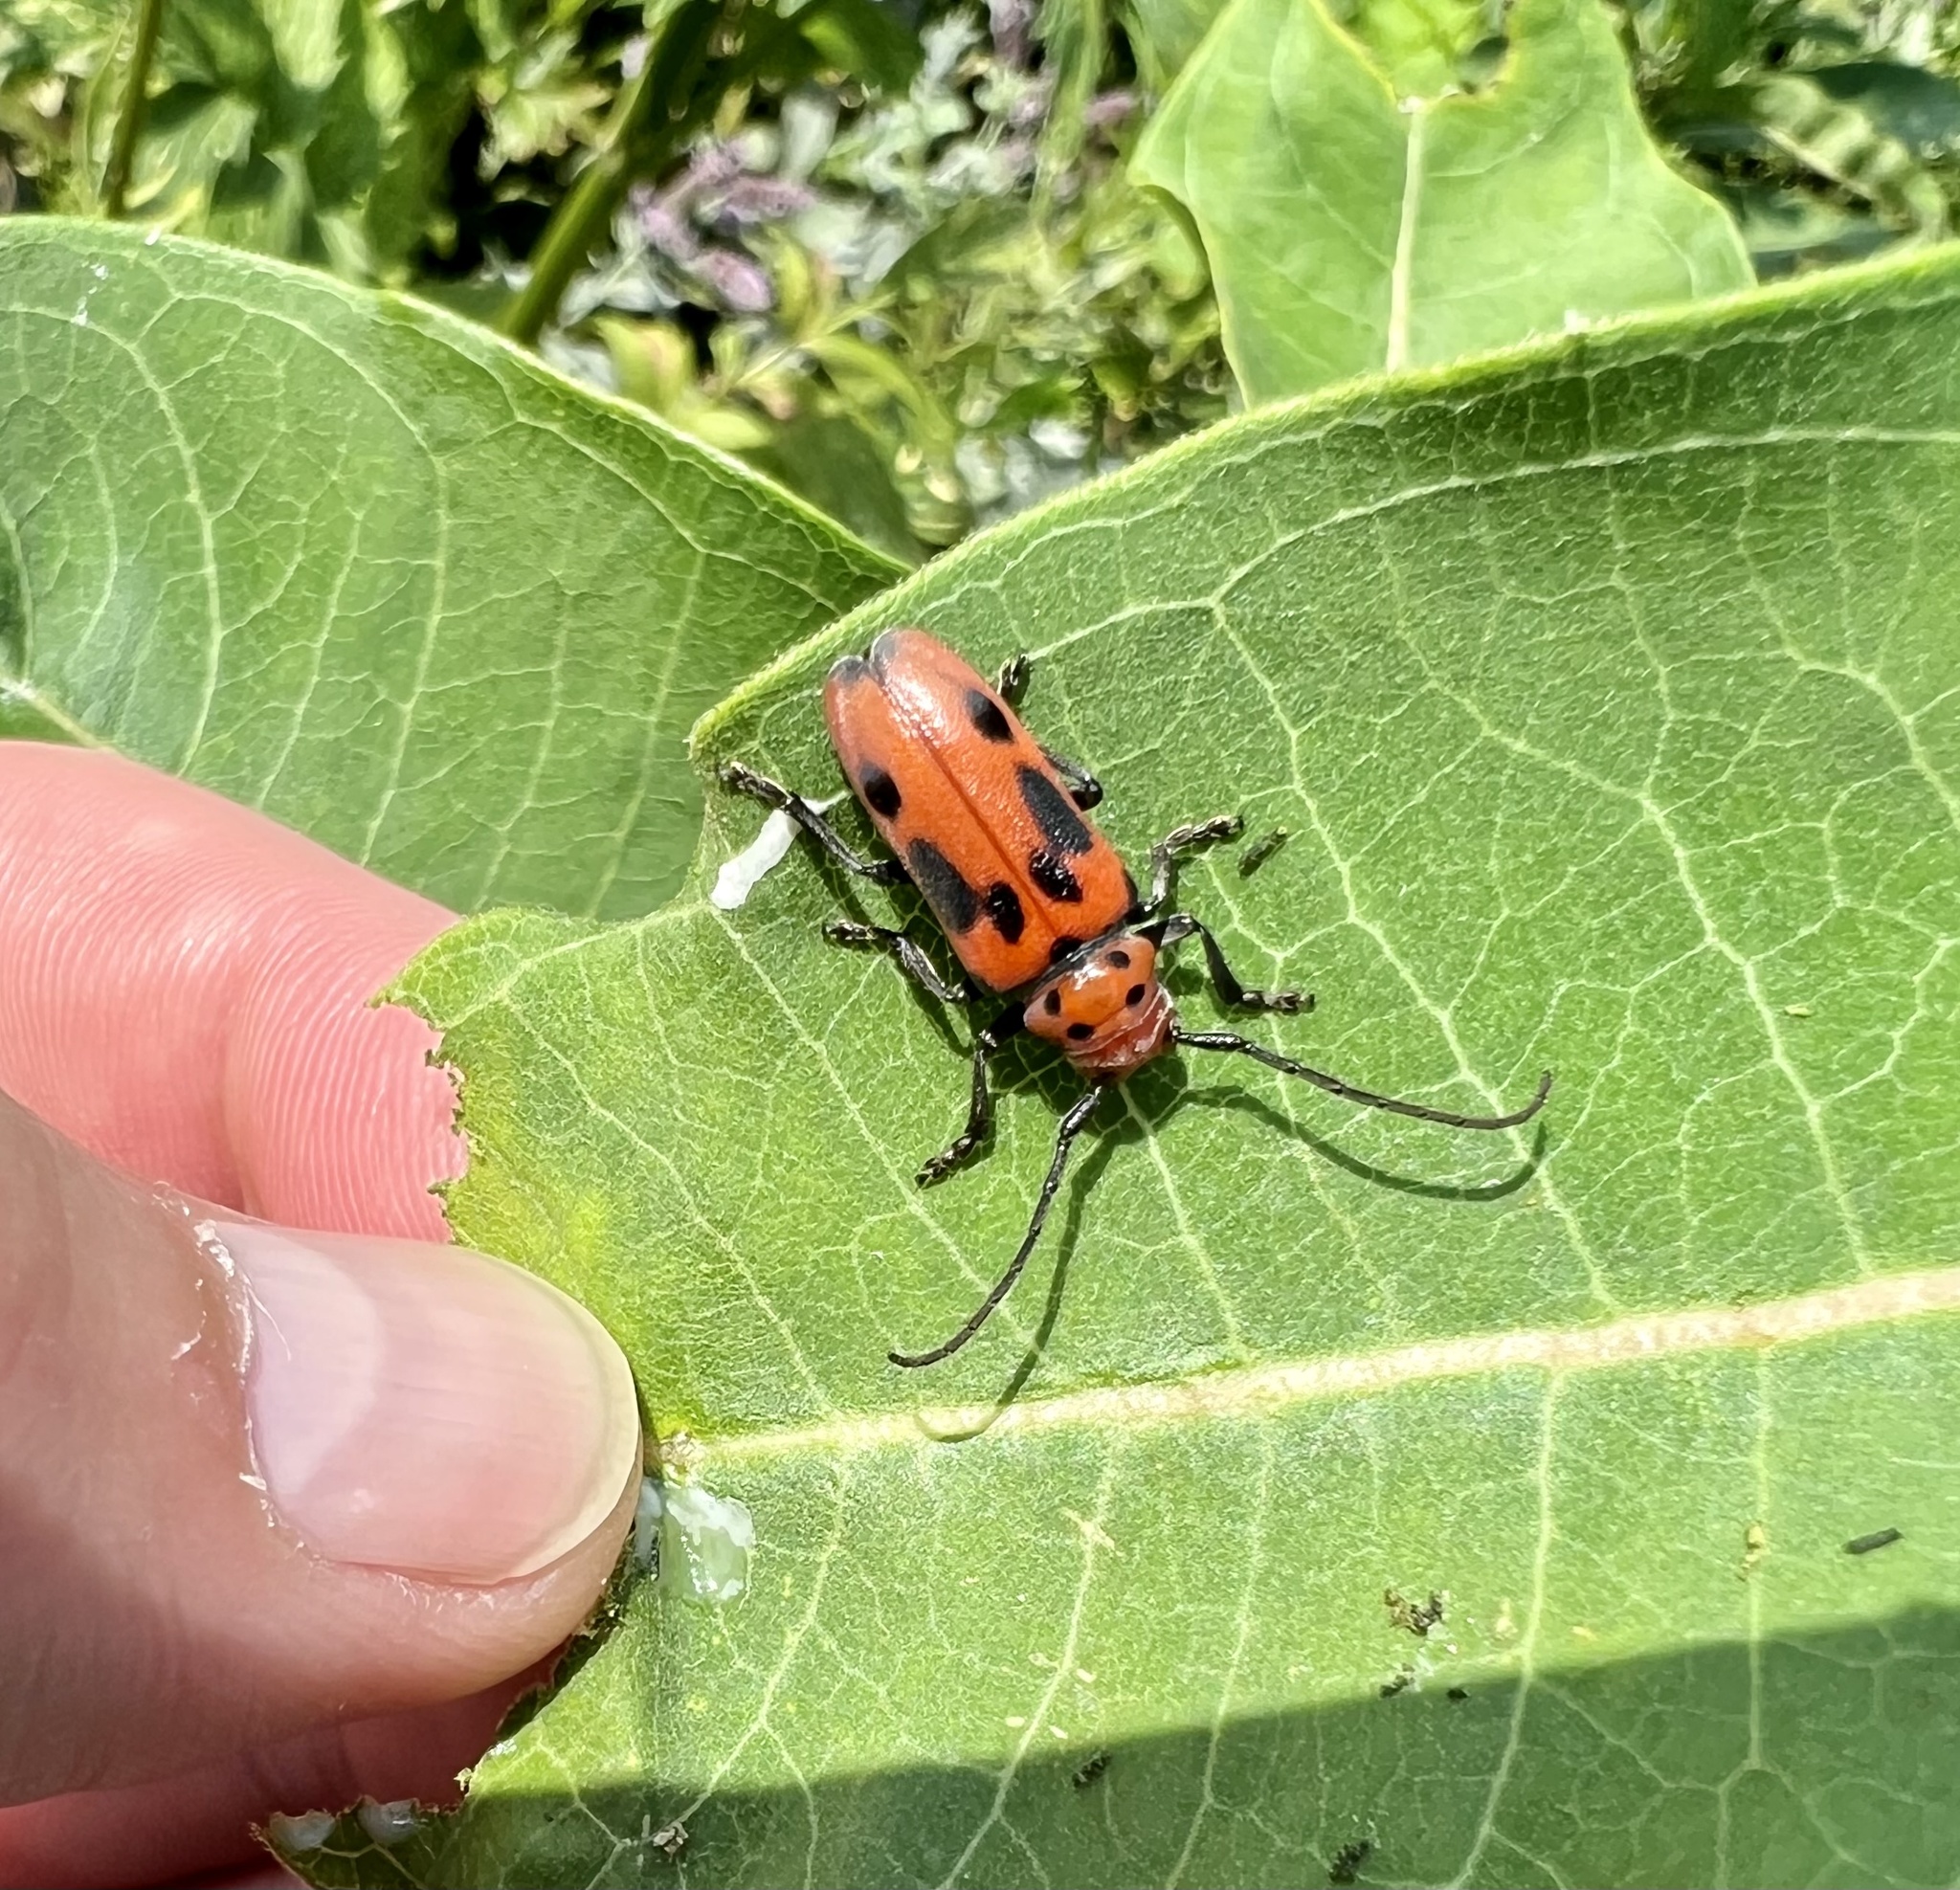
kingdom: Animalia
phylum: Arthropoda
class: Insecta
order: Coleoptera
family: Cerambycidae
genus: Tetraopes
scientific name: Tetraopes tetrophthalmus
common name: Red milkweed beetle
